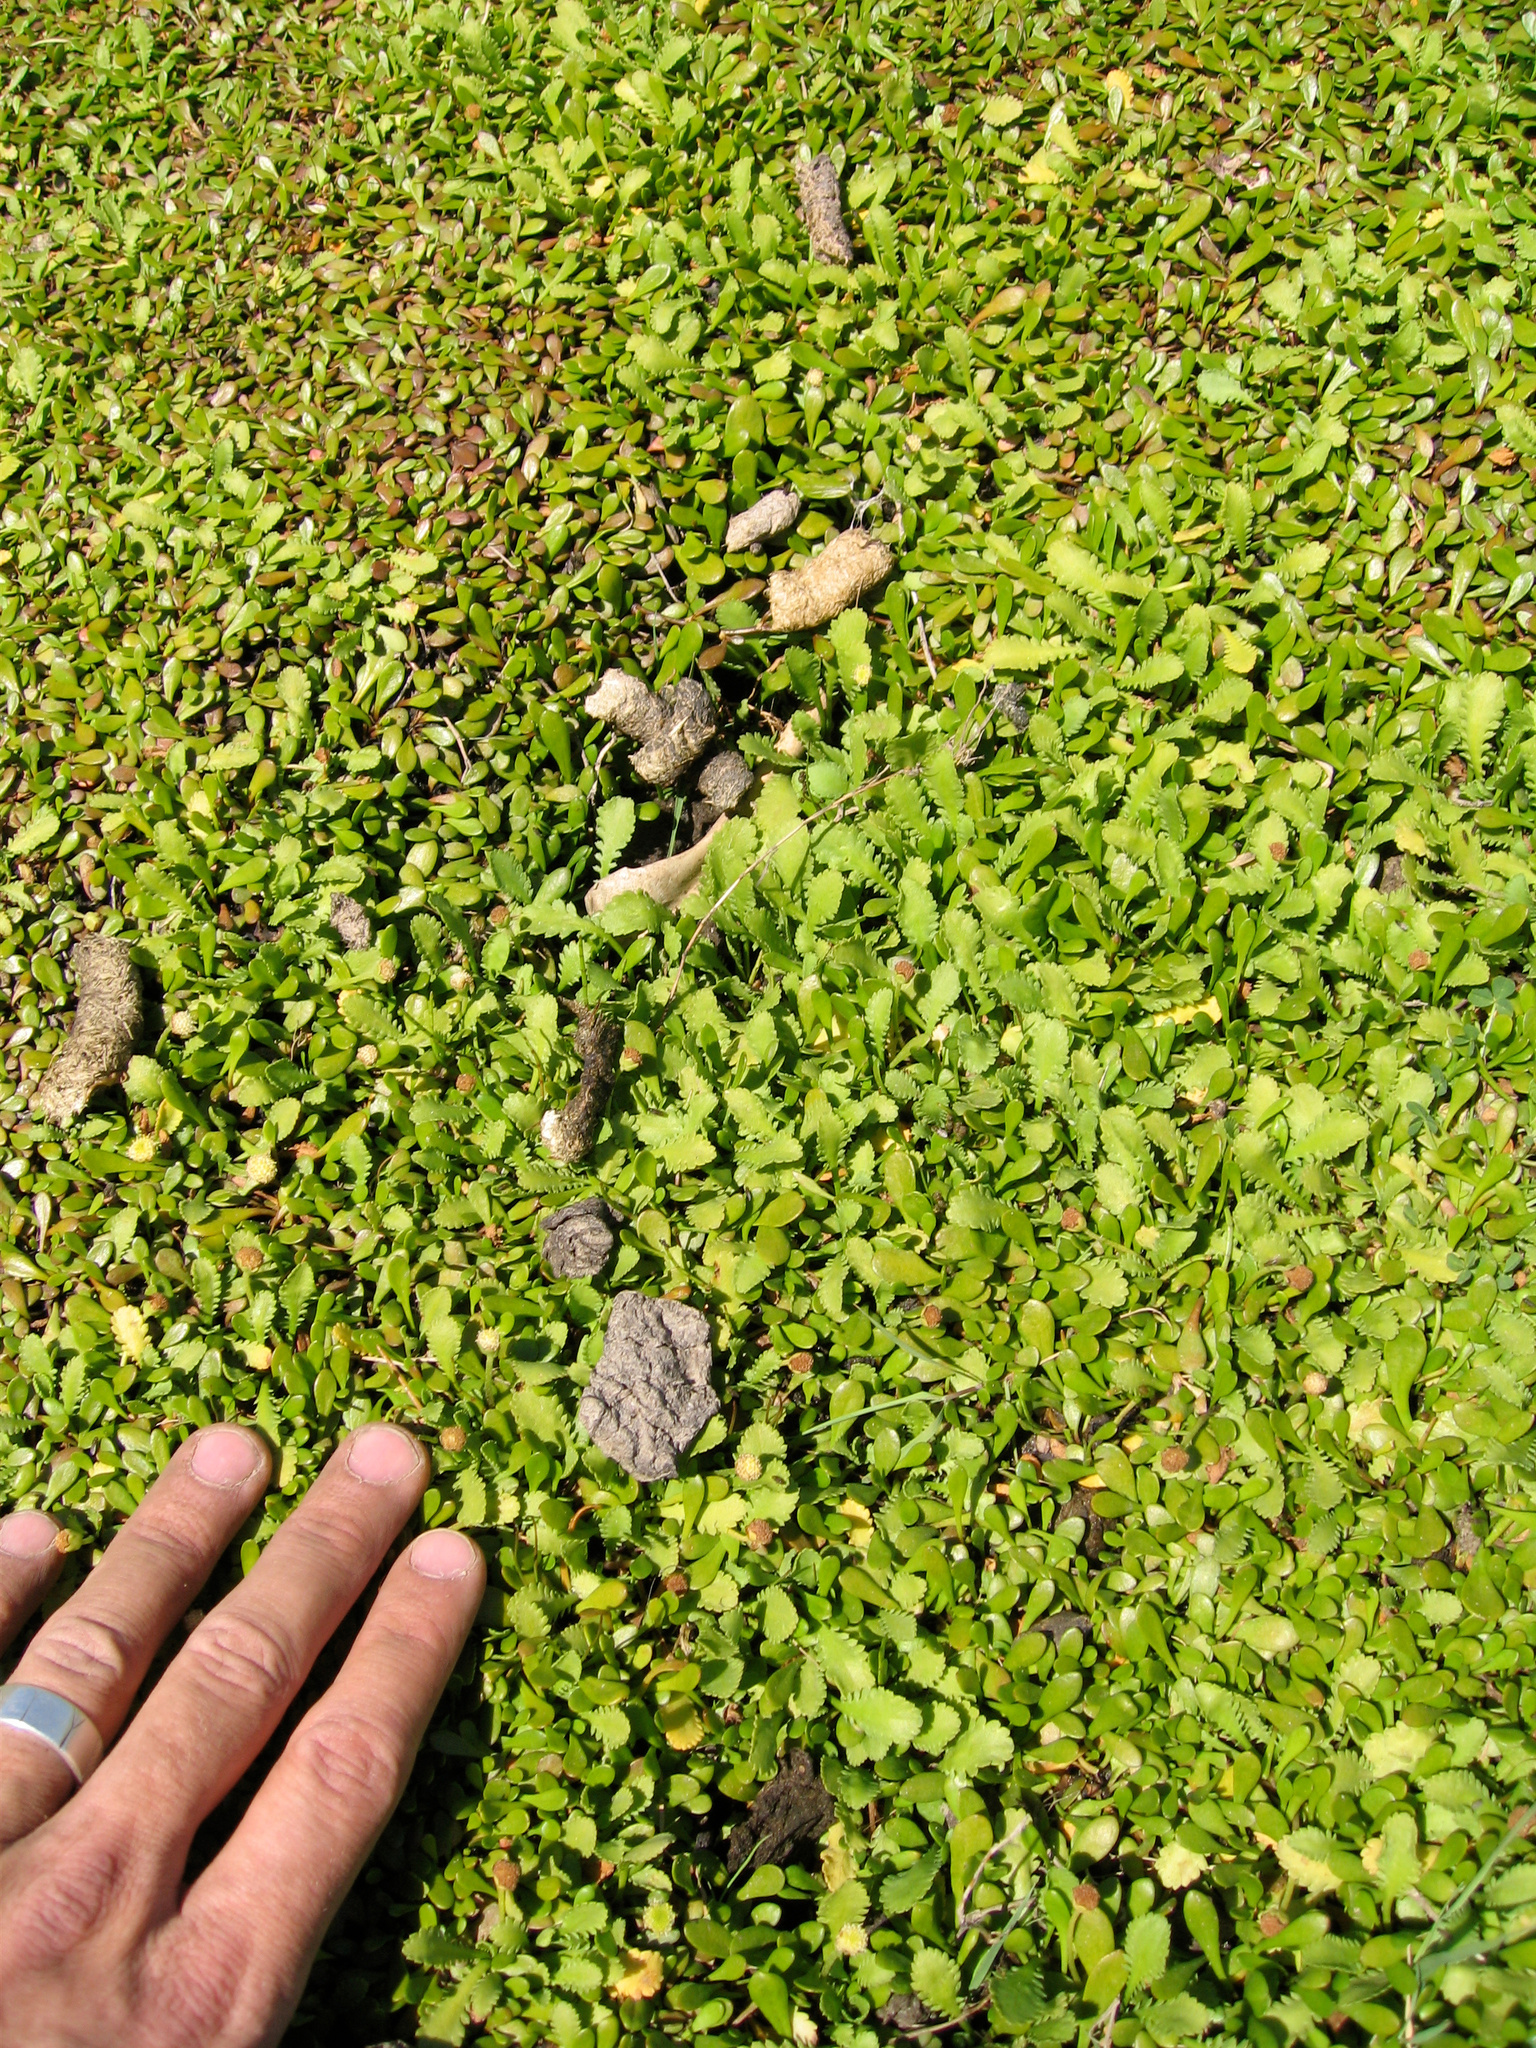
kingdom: Plantae
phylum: Tracheophyta
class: Magnoliopsida
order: Asterales
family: Goodeniaceae
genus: Goodenia
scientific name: Goodenia radicans
